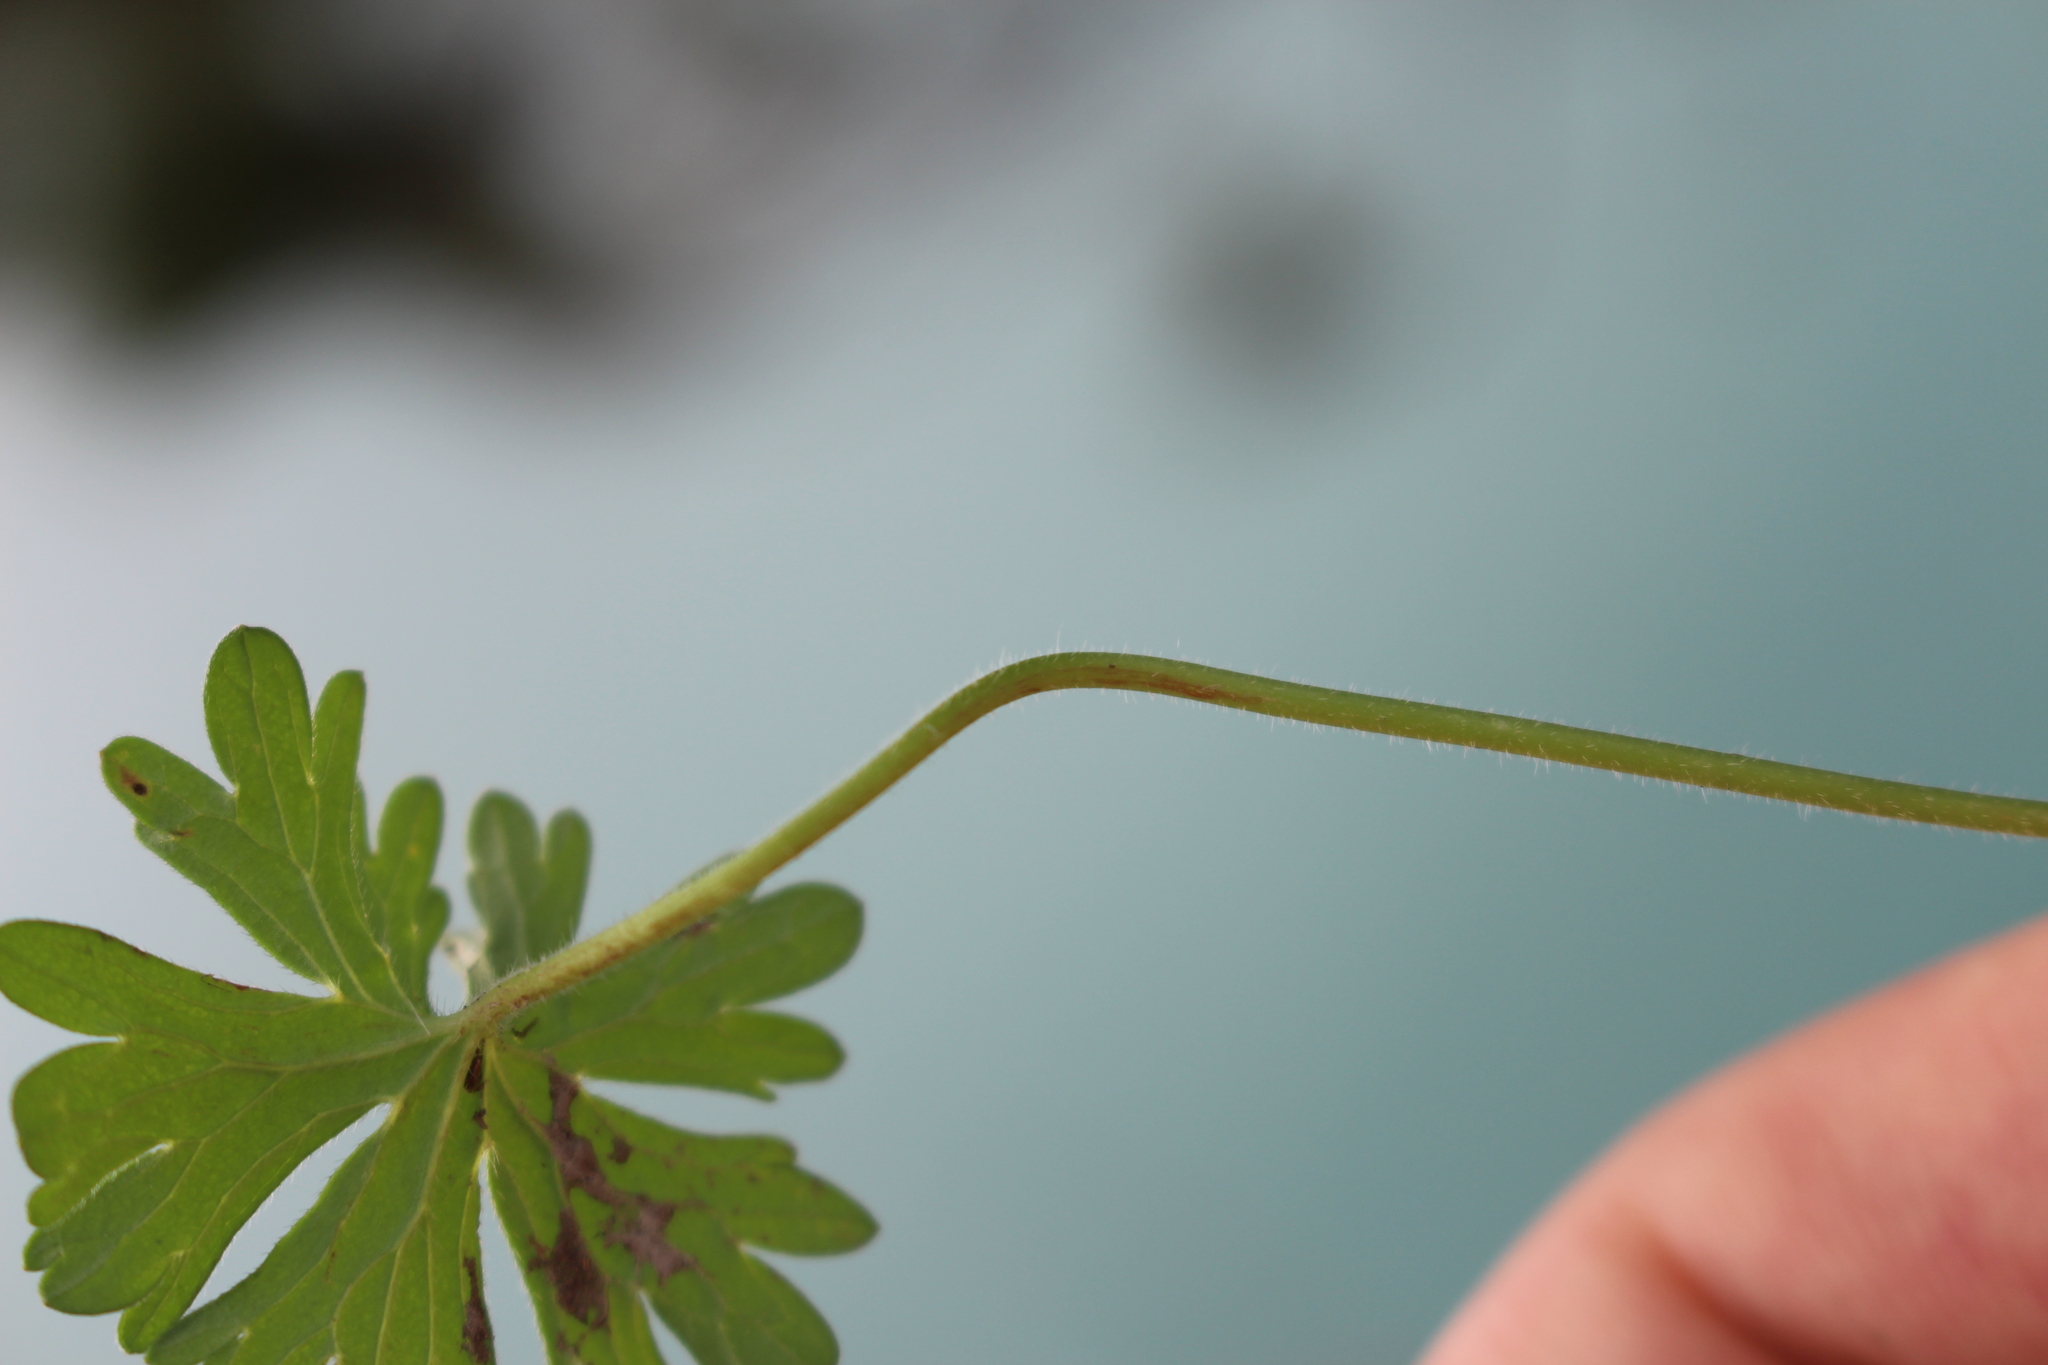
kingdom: Plantae
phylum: Tracheophyta
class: Magnoliopsida
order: Geraniales
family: Geraniaceae
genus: Geranium
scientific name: Geranium molle
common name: Dove's-foot crane's-bill
